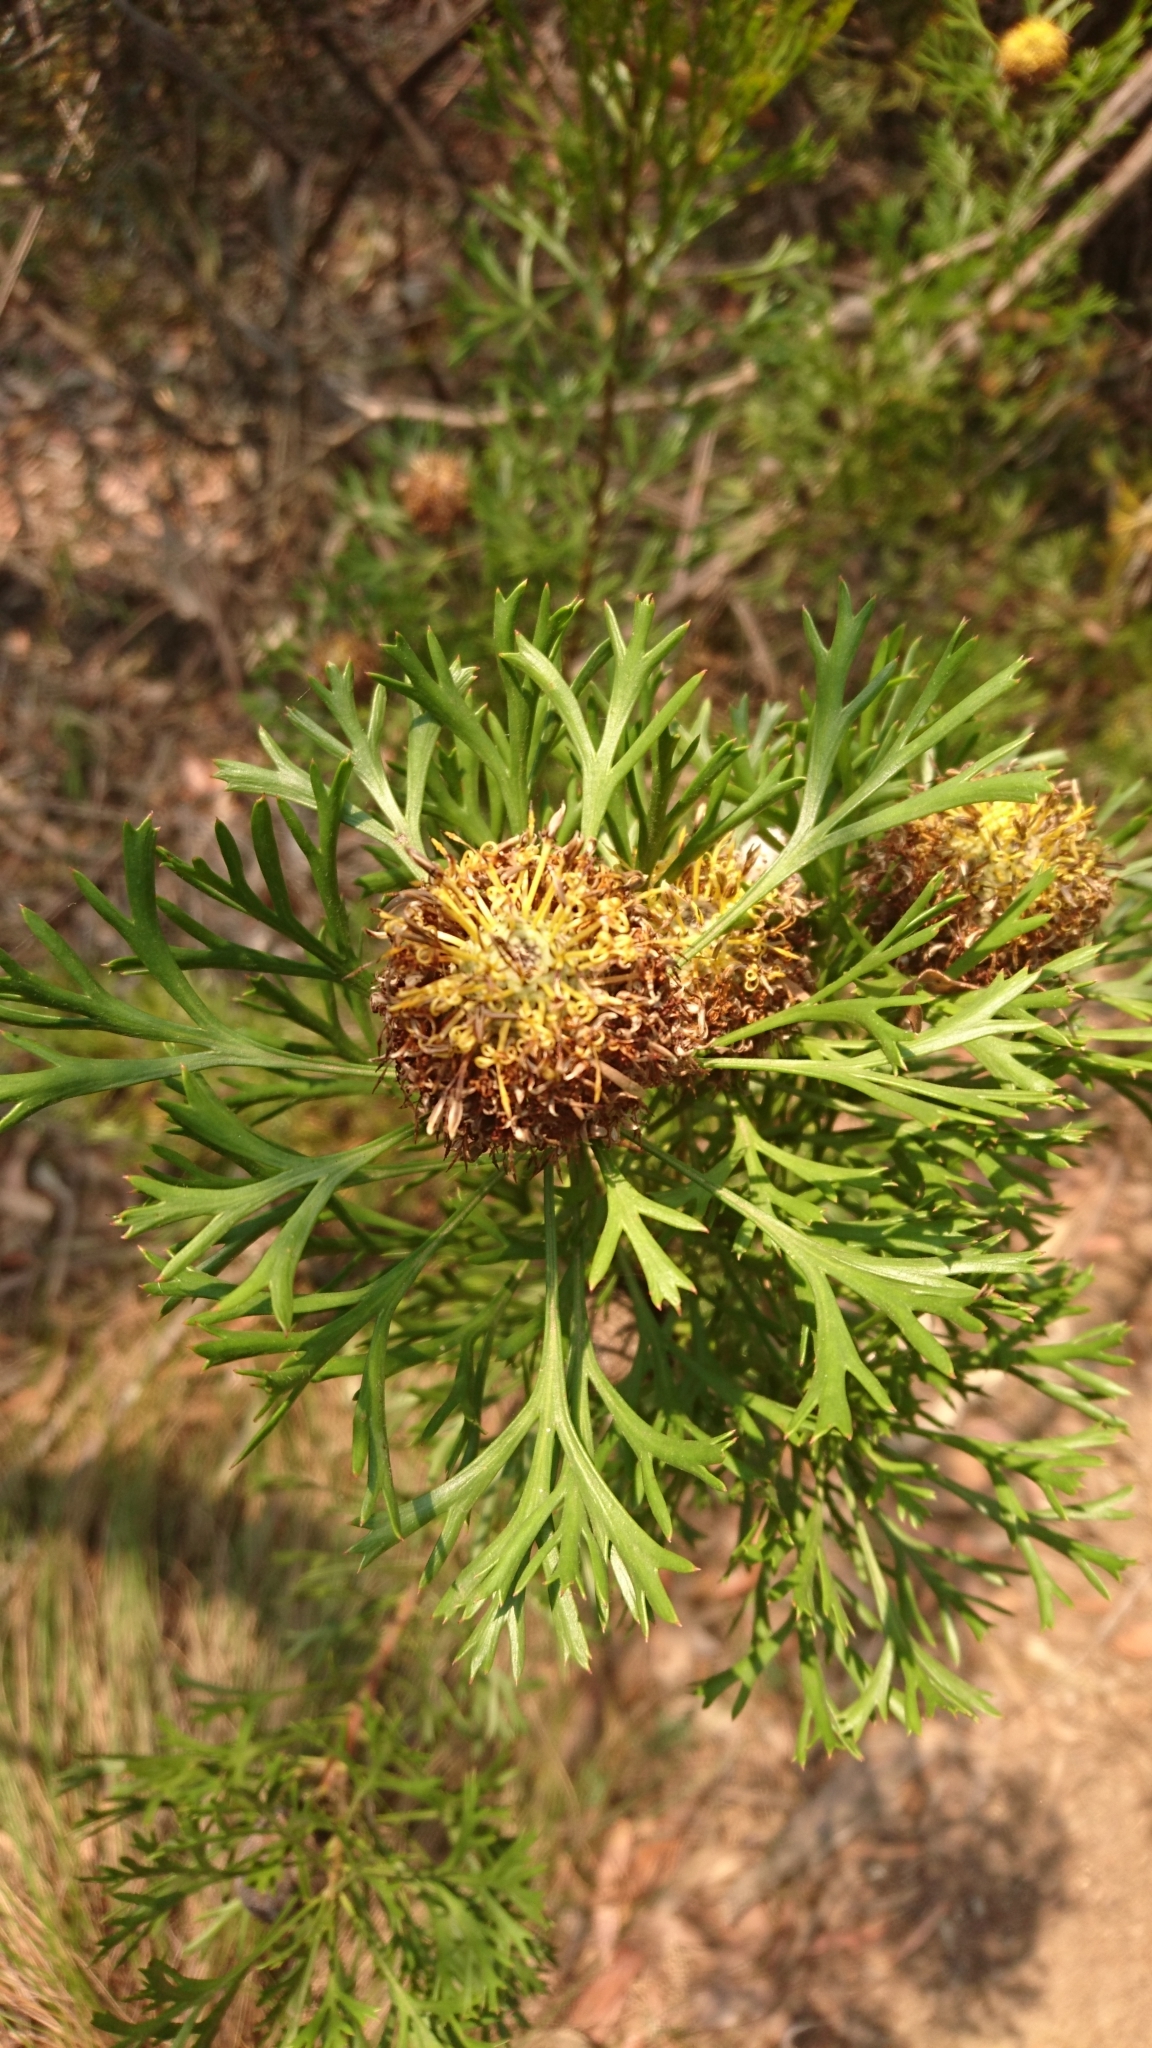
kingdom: Plantae
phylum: Tracheophyta
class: Magnoliopsida
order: Proteales
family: Proteaceae
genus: Isopogon
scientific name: Isopogon anemonifolius
